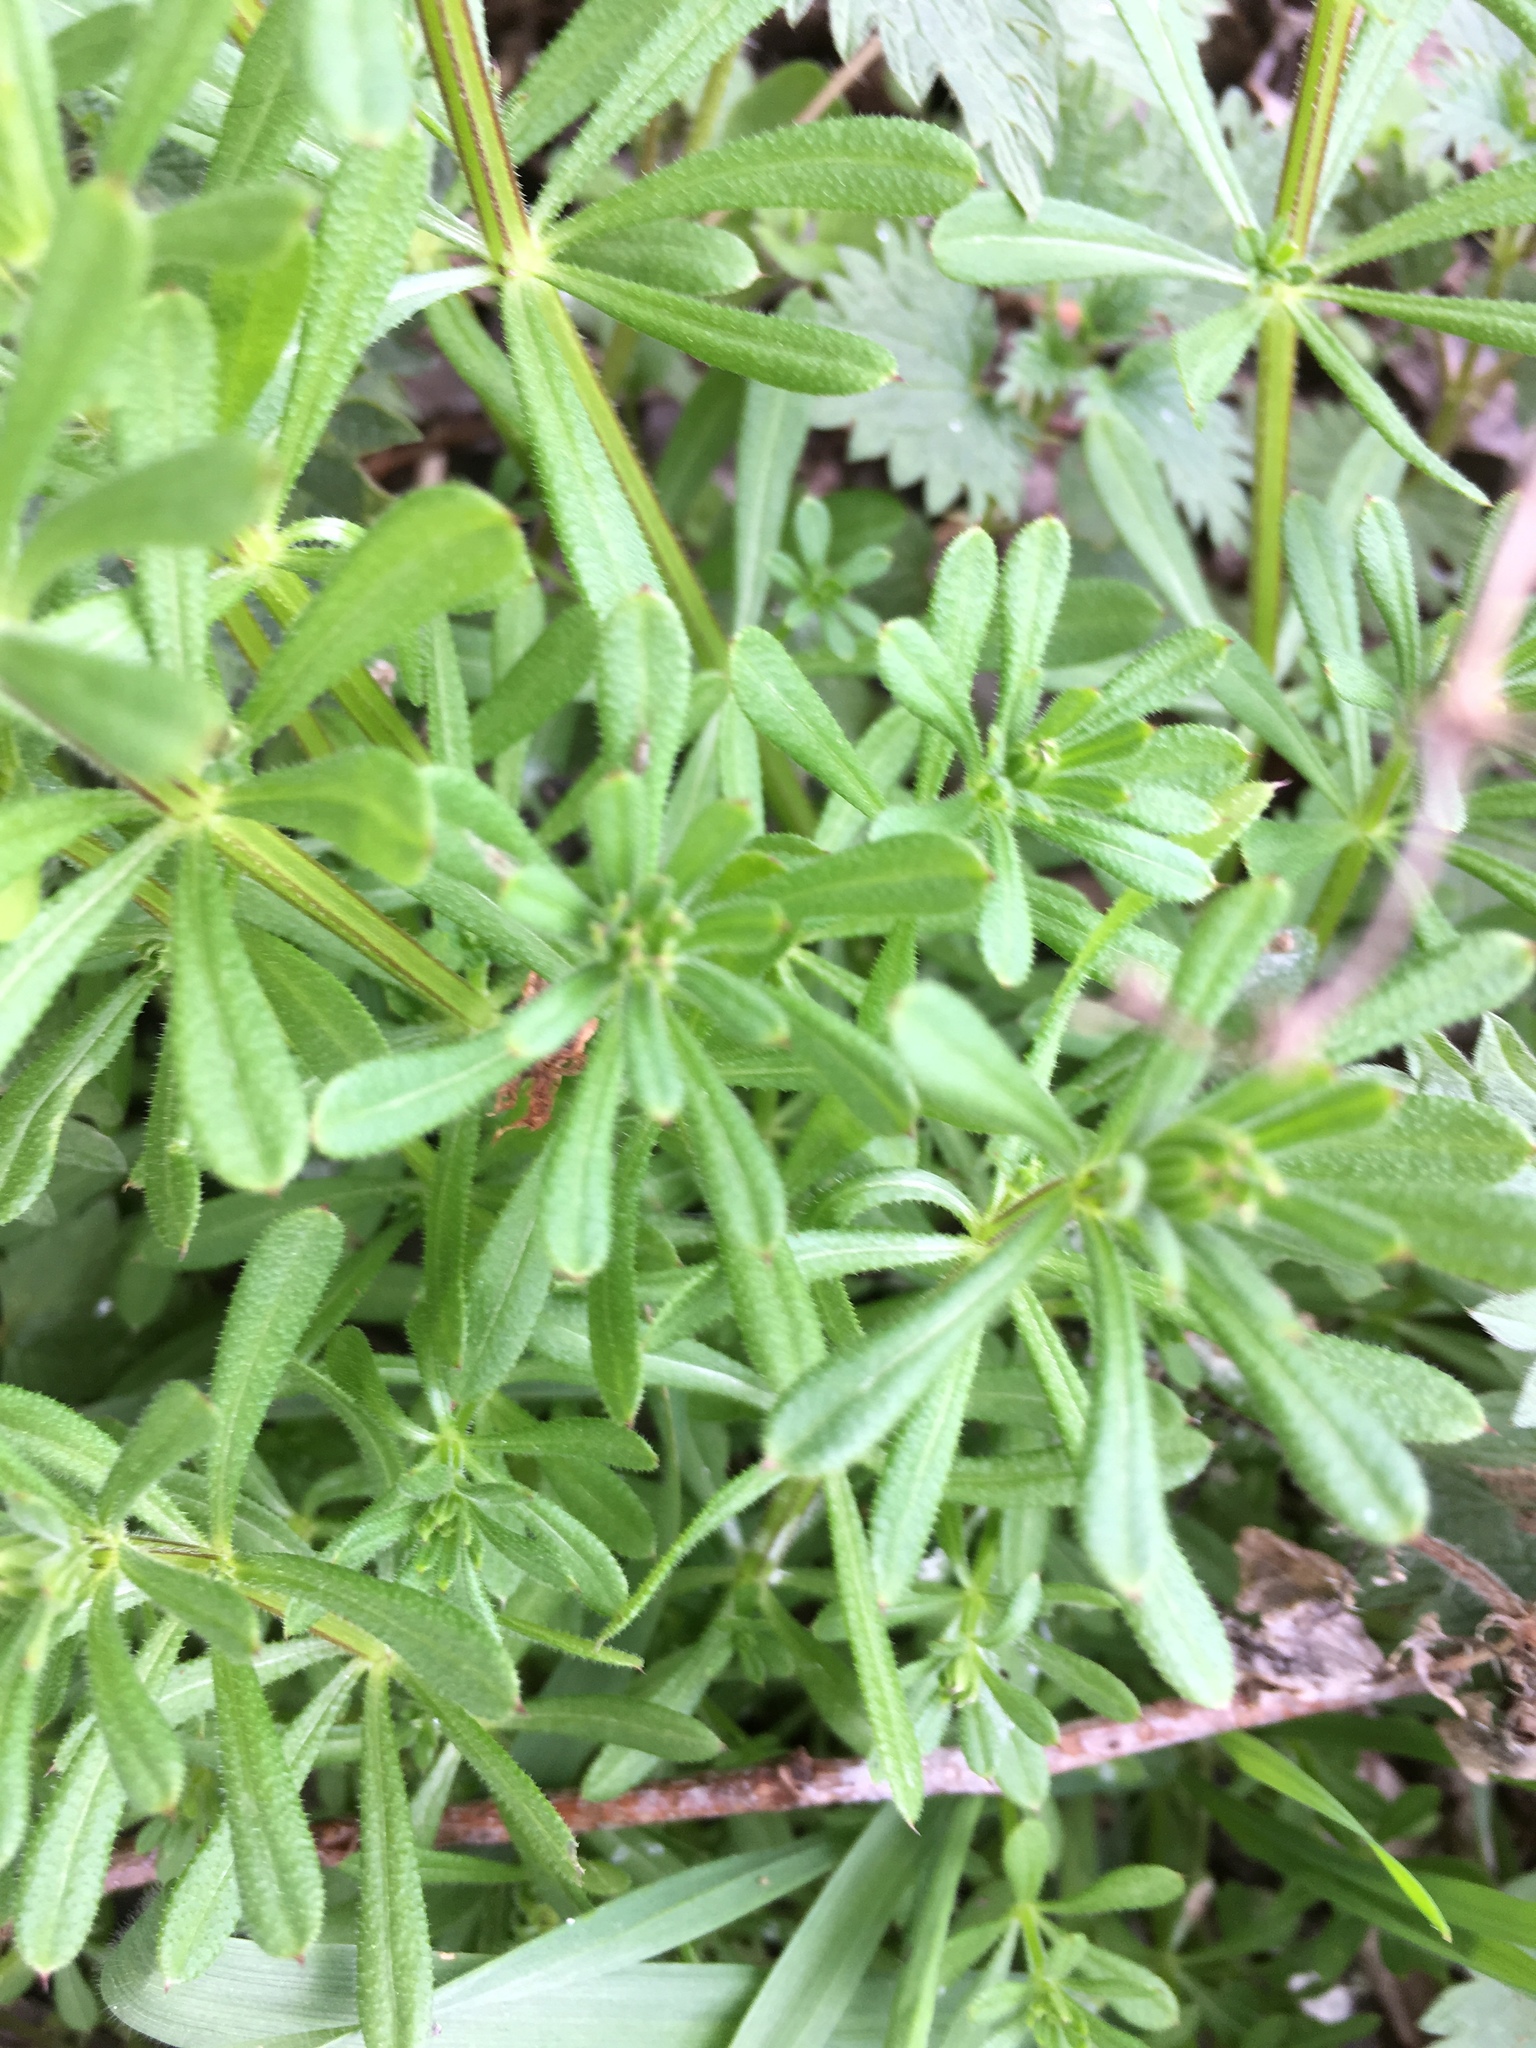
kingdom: Plantae
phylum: Tracheophyta
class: Magnoliopsida
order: Gentianales
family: Rubiaceae
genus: Galium
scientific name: Galium aparine
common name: Cleavers
